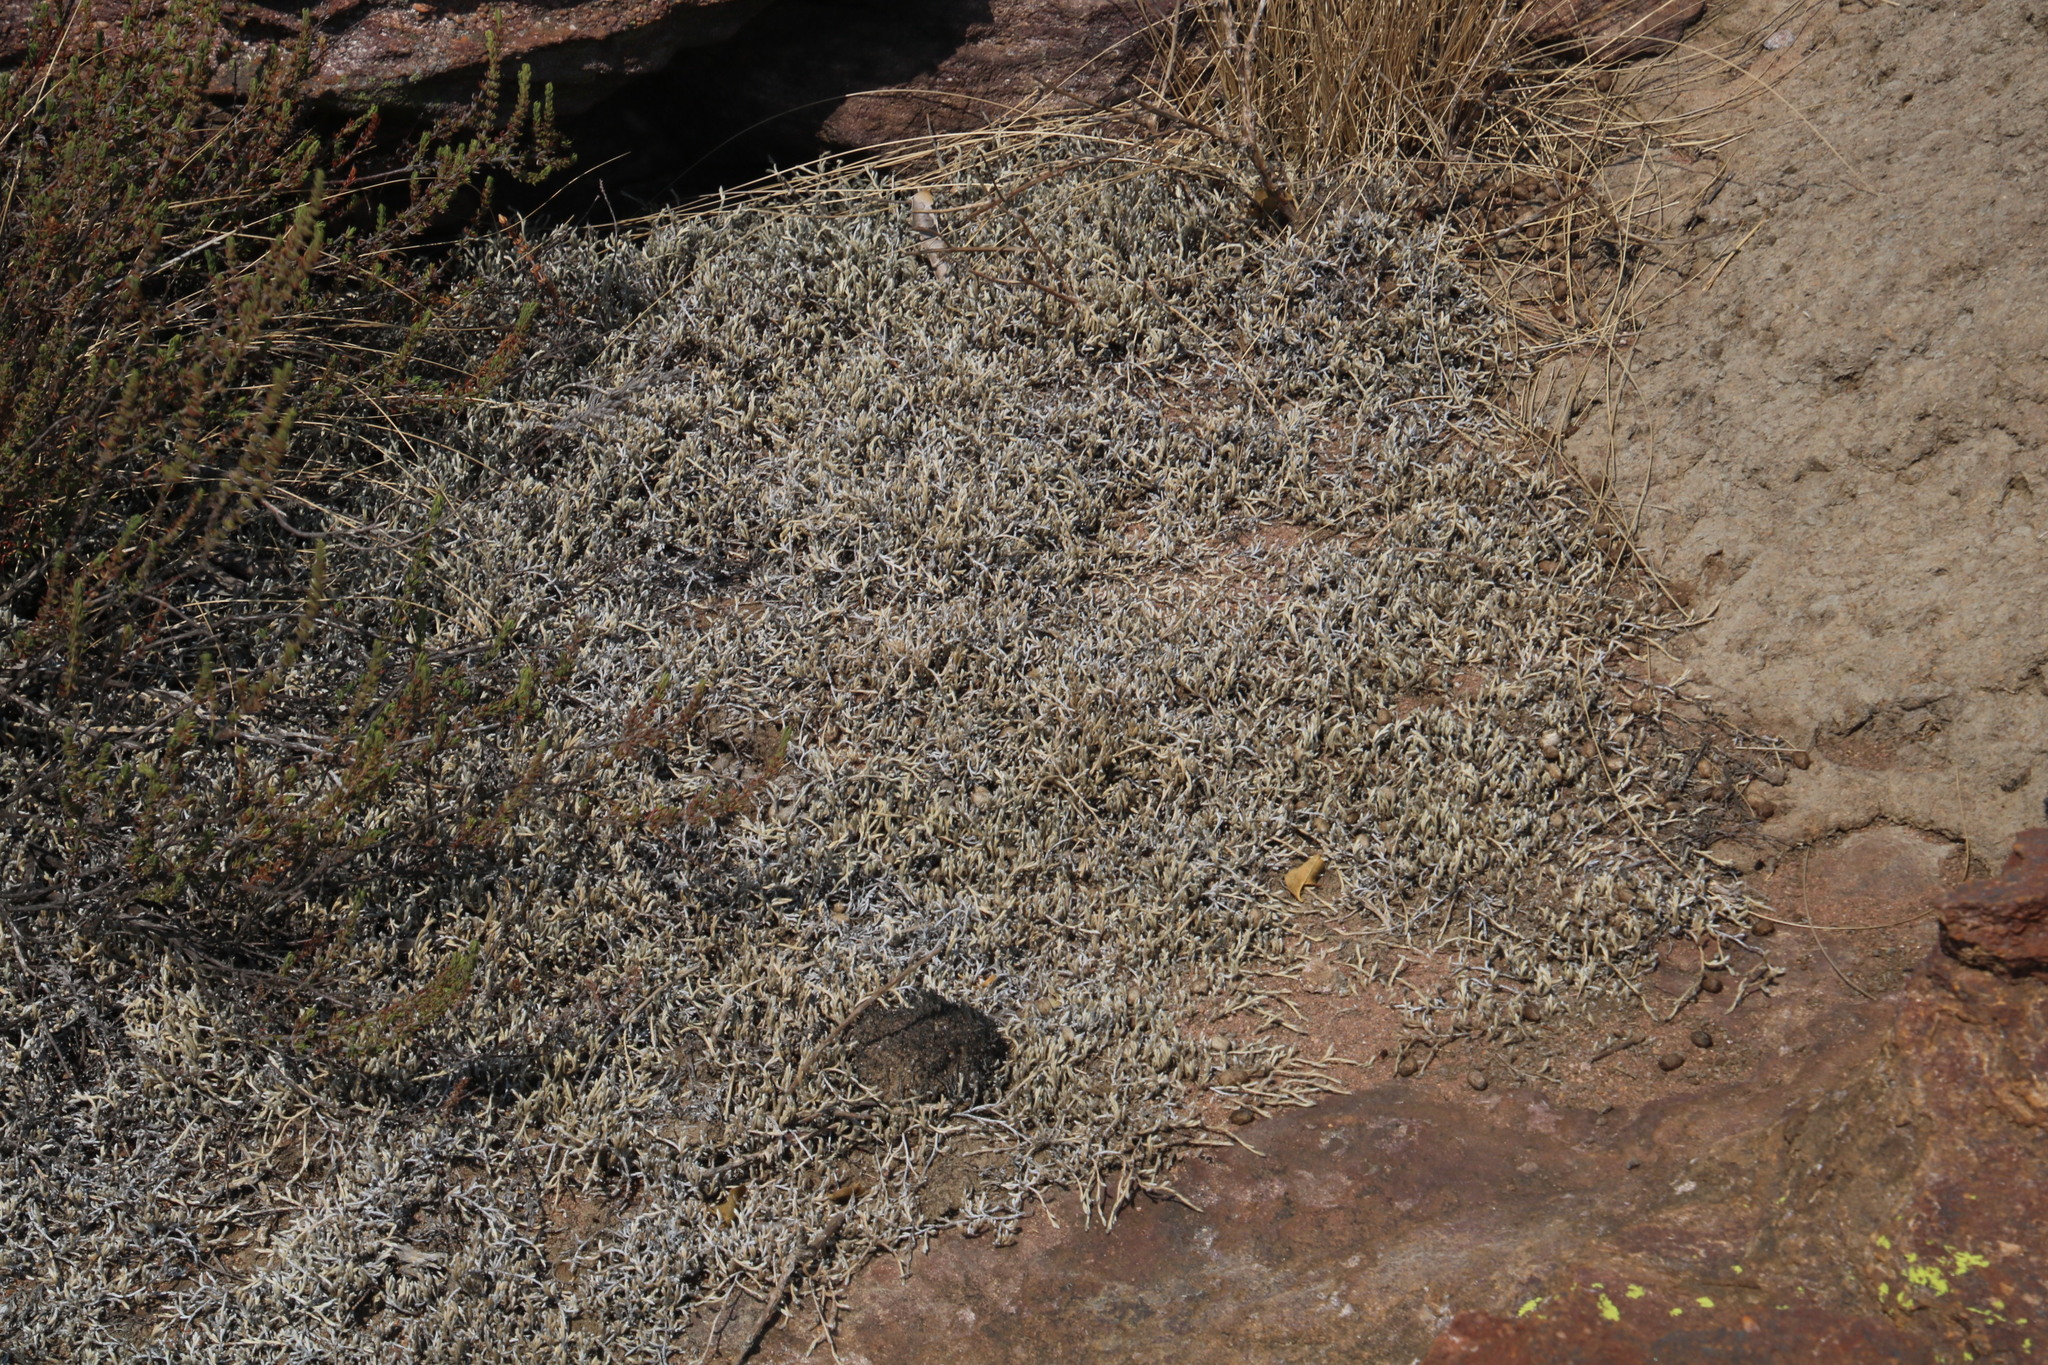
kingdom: Plantae
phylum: Tracheophyta
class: Lycopodiopsida
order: Selaginellales
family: Selaginellaceae
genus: Selaginella
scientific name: Selaginella dregei
